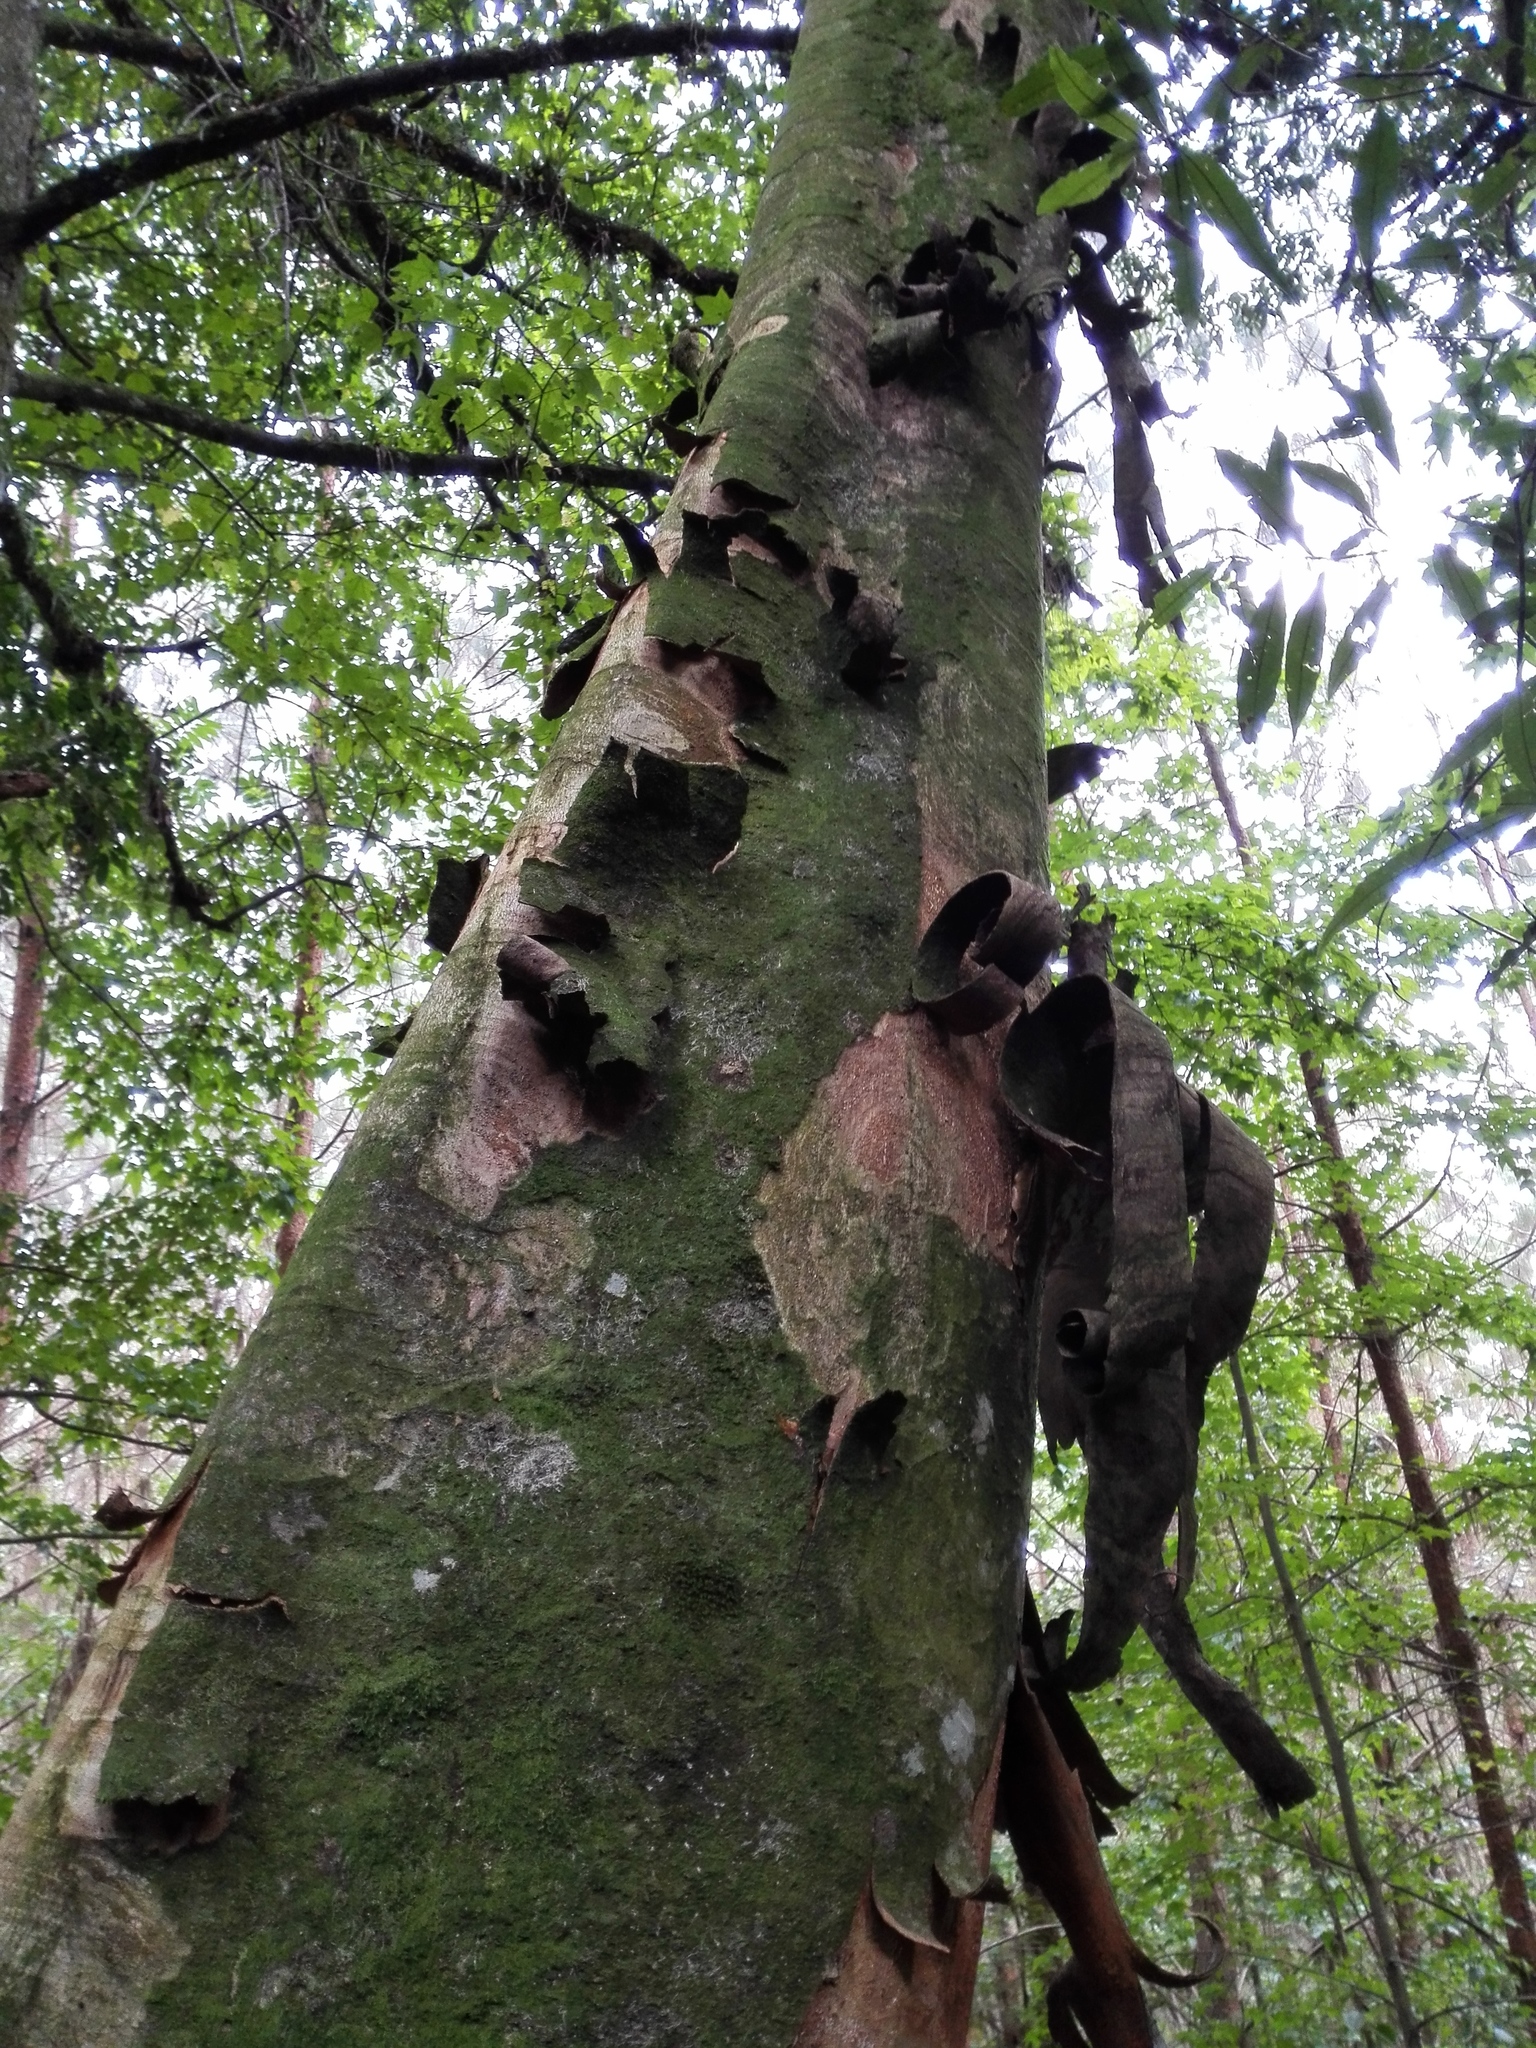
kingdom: Plantae
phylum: Tracheophyta
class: Magnoliopsida
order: Fagales
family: Juglandaceae
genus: Oreomunnea
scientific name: Oreomunnea mexicana
